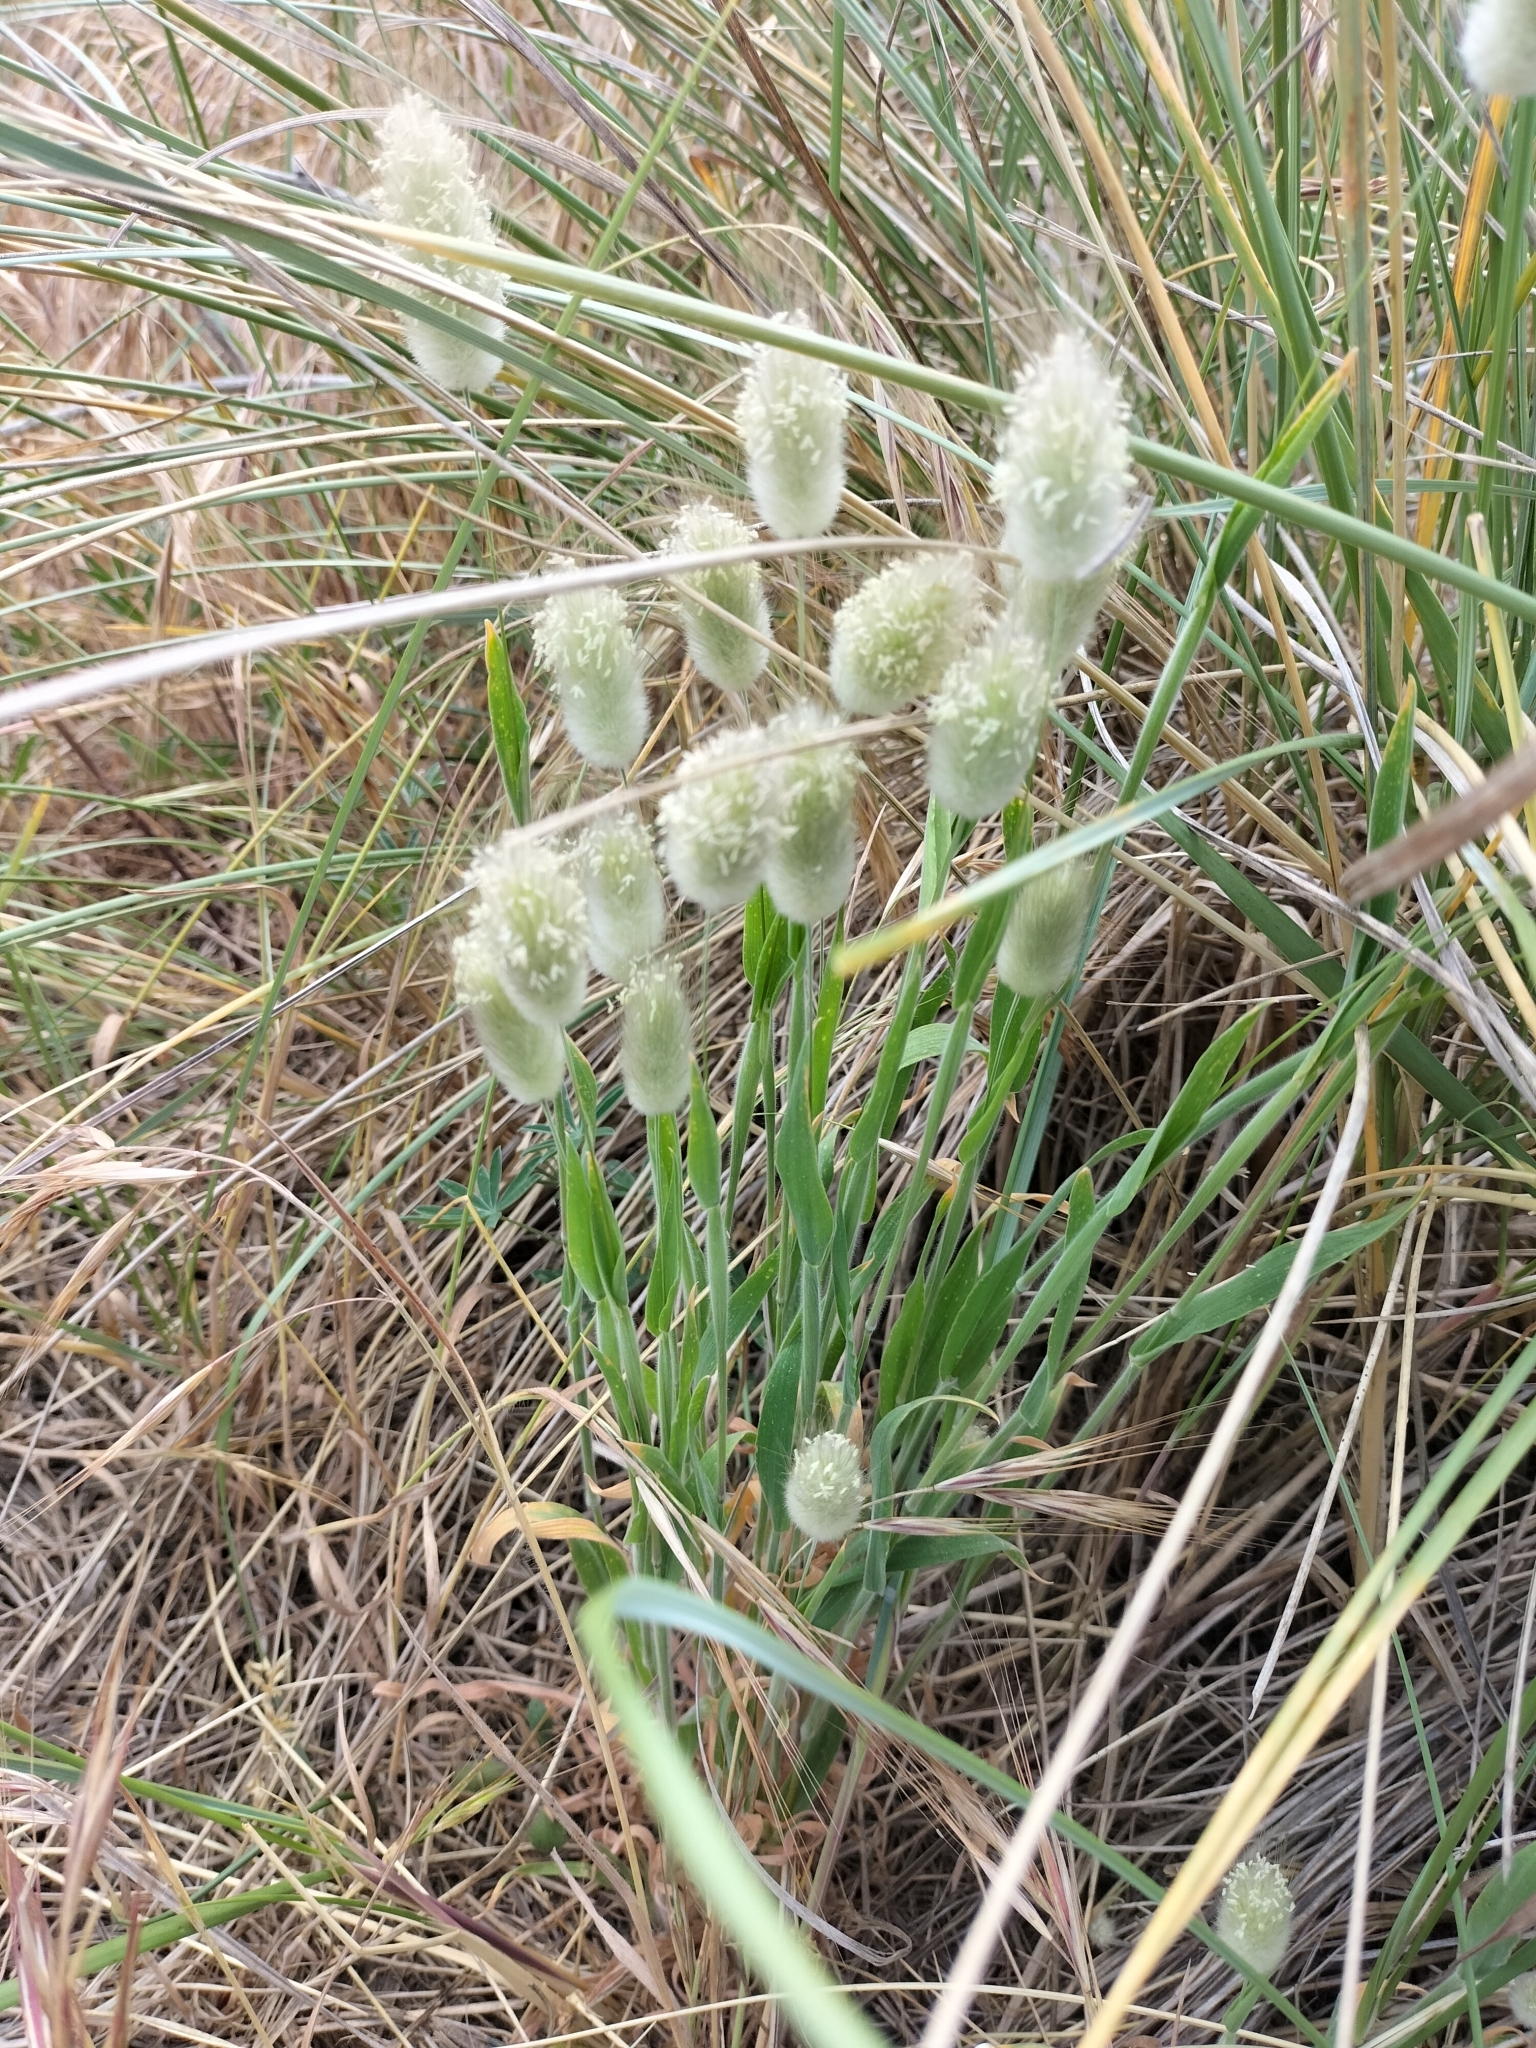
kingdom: Plantae
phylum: Tracheophyta
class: Liliopsida
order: Poales
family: Poaceae
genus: Lagurus
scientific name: Lagurus ovatus
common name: Hare's-tail
